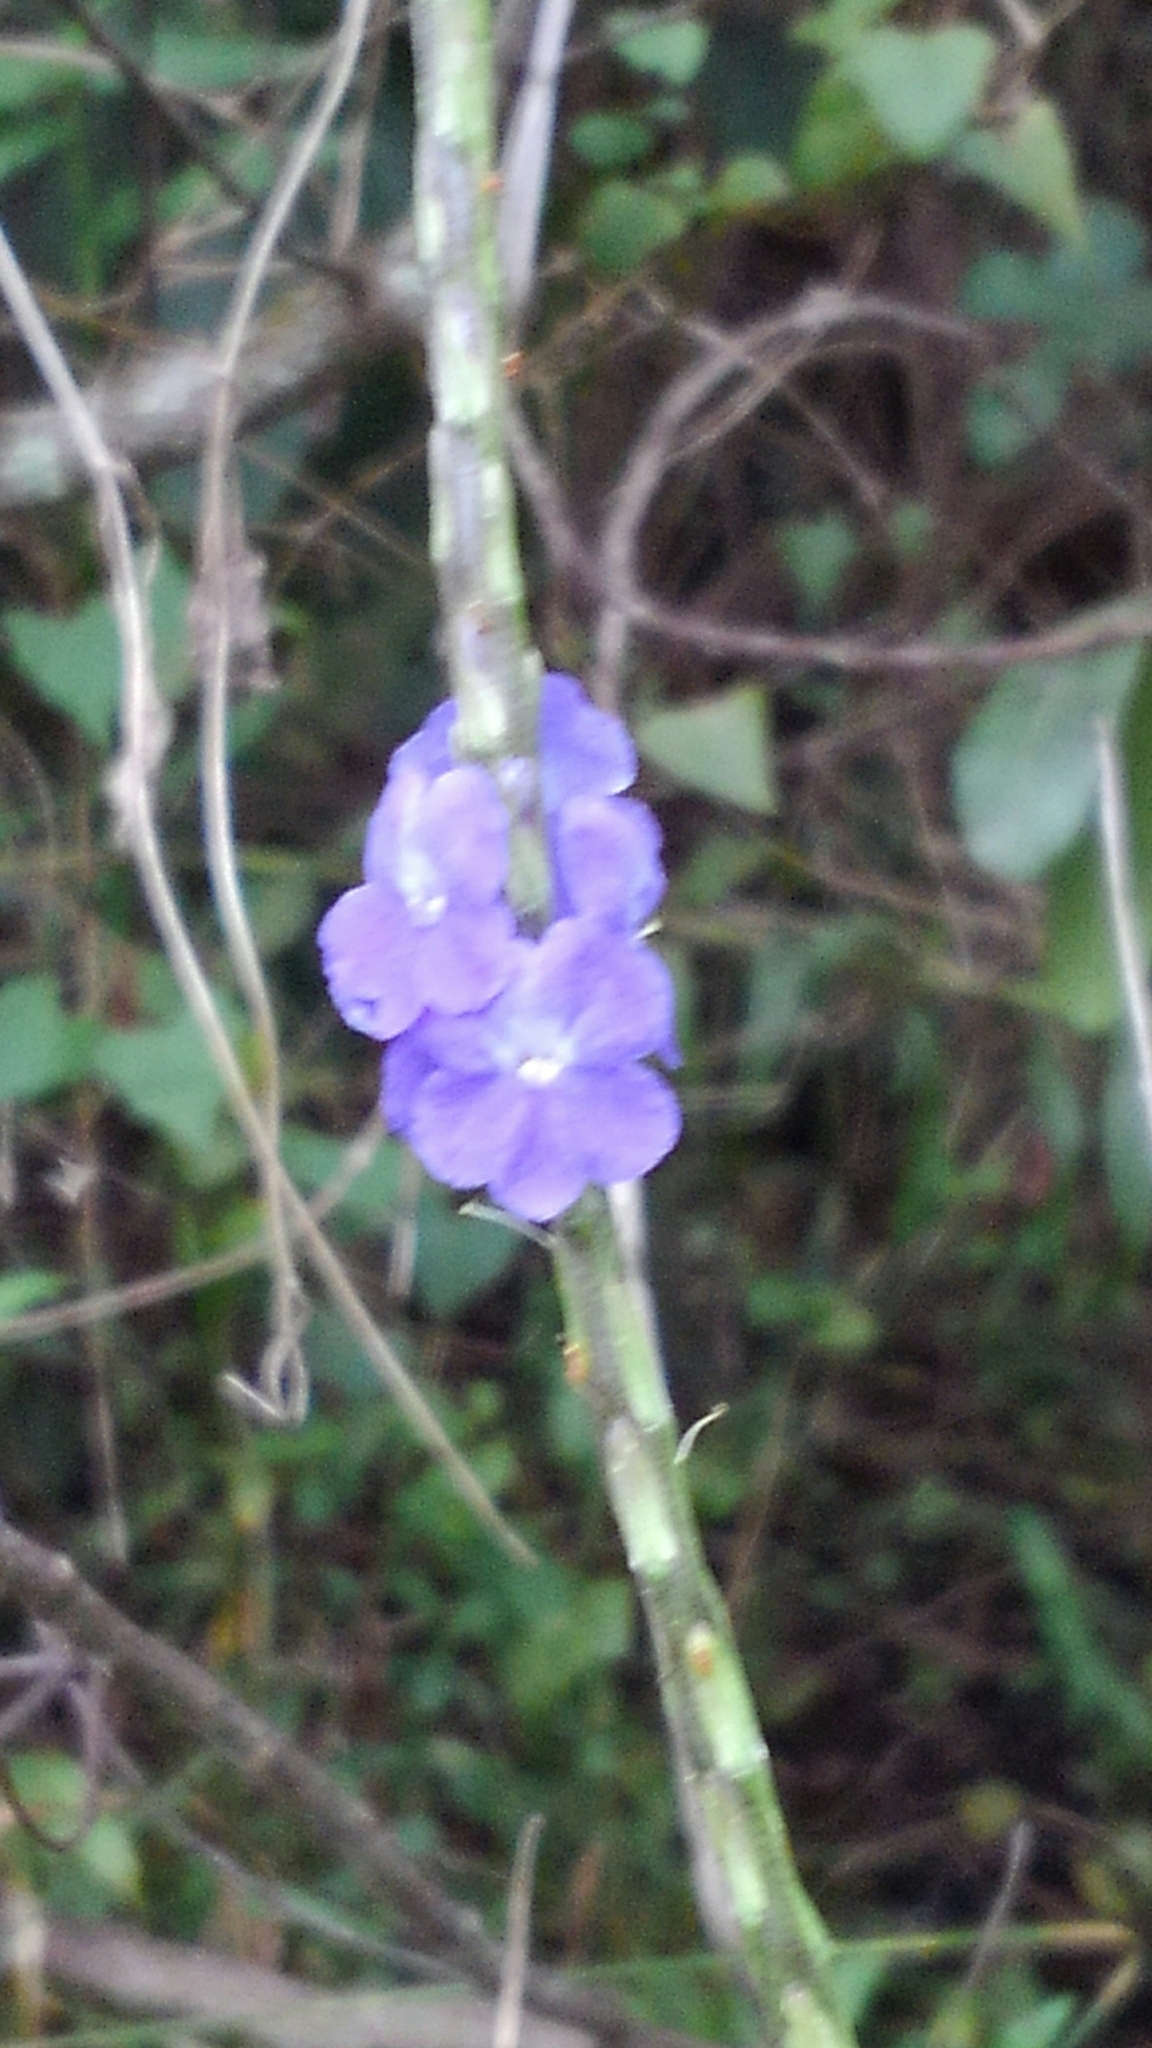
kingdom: Plantae
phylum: Tracheophyta
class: Magnoliopsida
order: Lamiales
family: Verbenaceae
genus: Stachytarpheta
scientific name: Stachytarpheta cayennensis
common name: Cayenne porterweed
